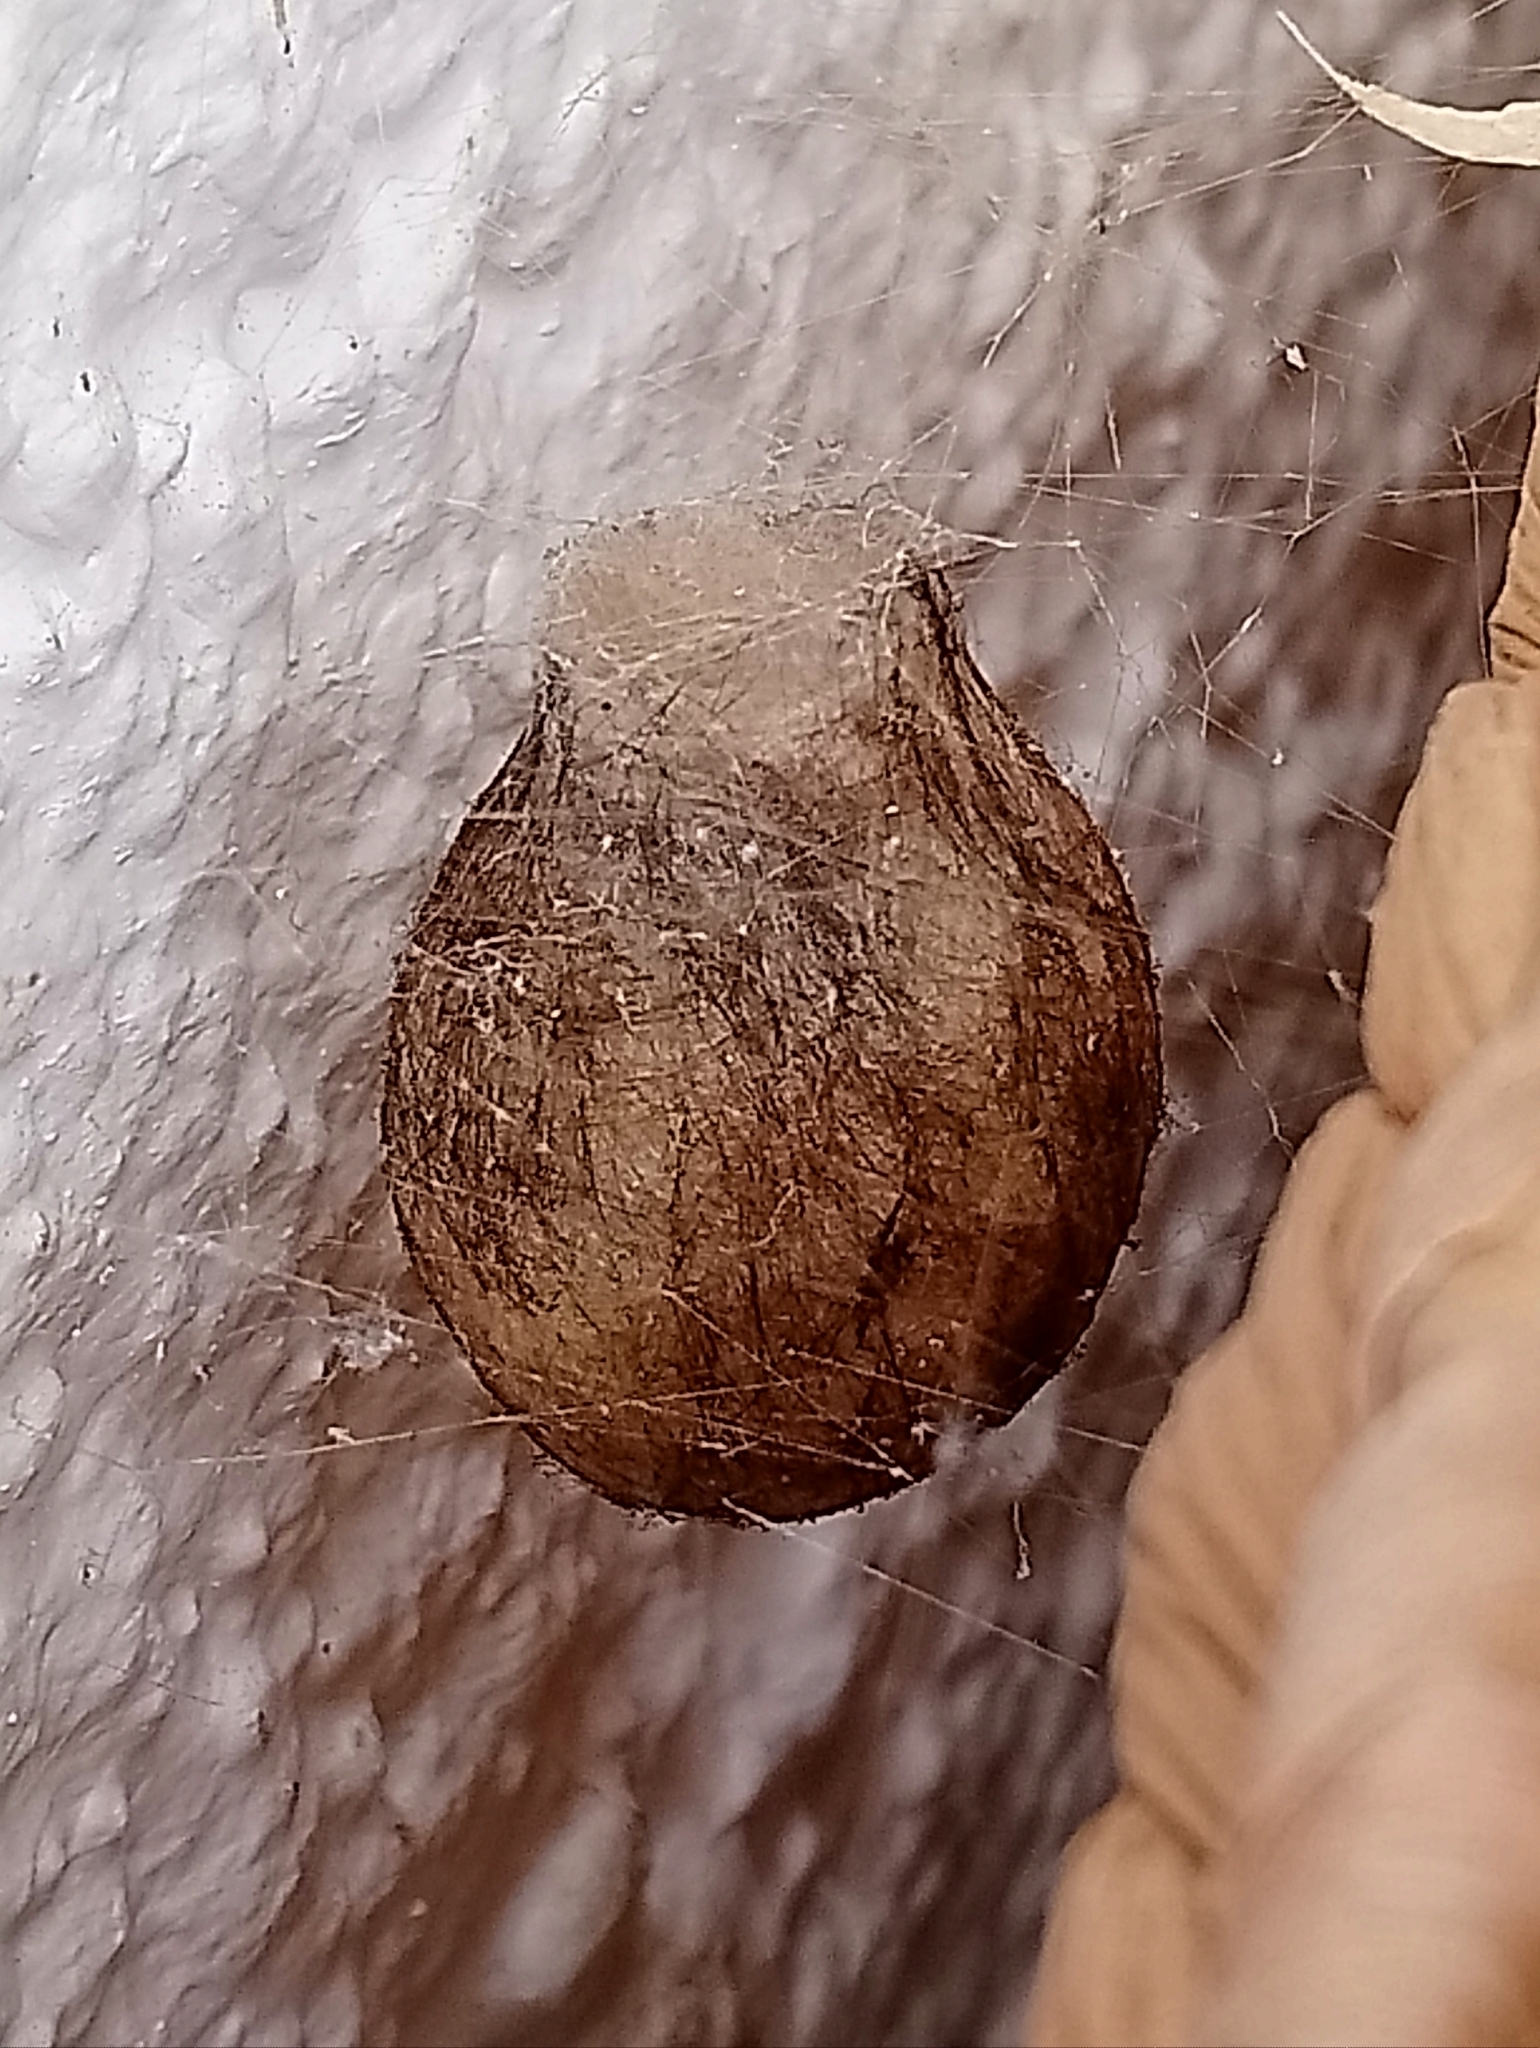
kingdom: Animalia
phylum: Arthropoda
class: Arachnida
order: Araneae
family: Araneidae
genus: Argiope
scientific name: Argiope bruennichi
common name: Wasp spider
